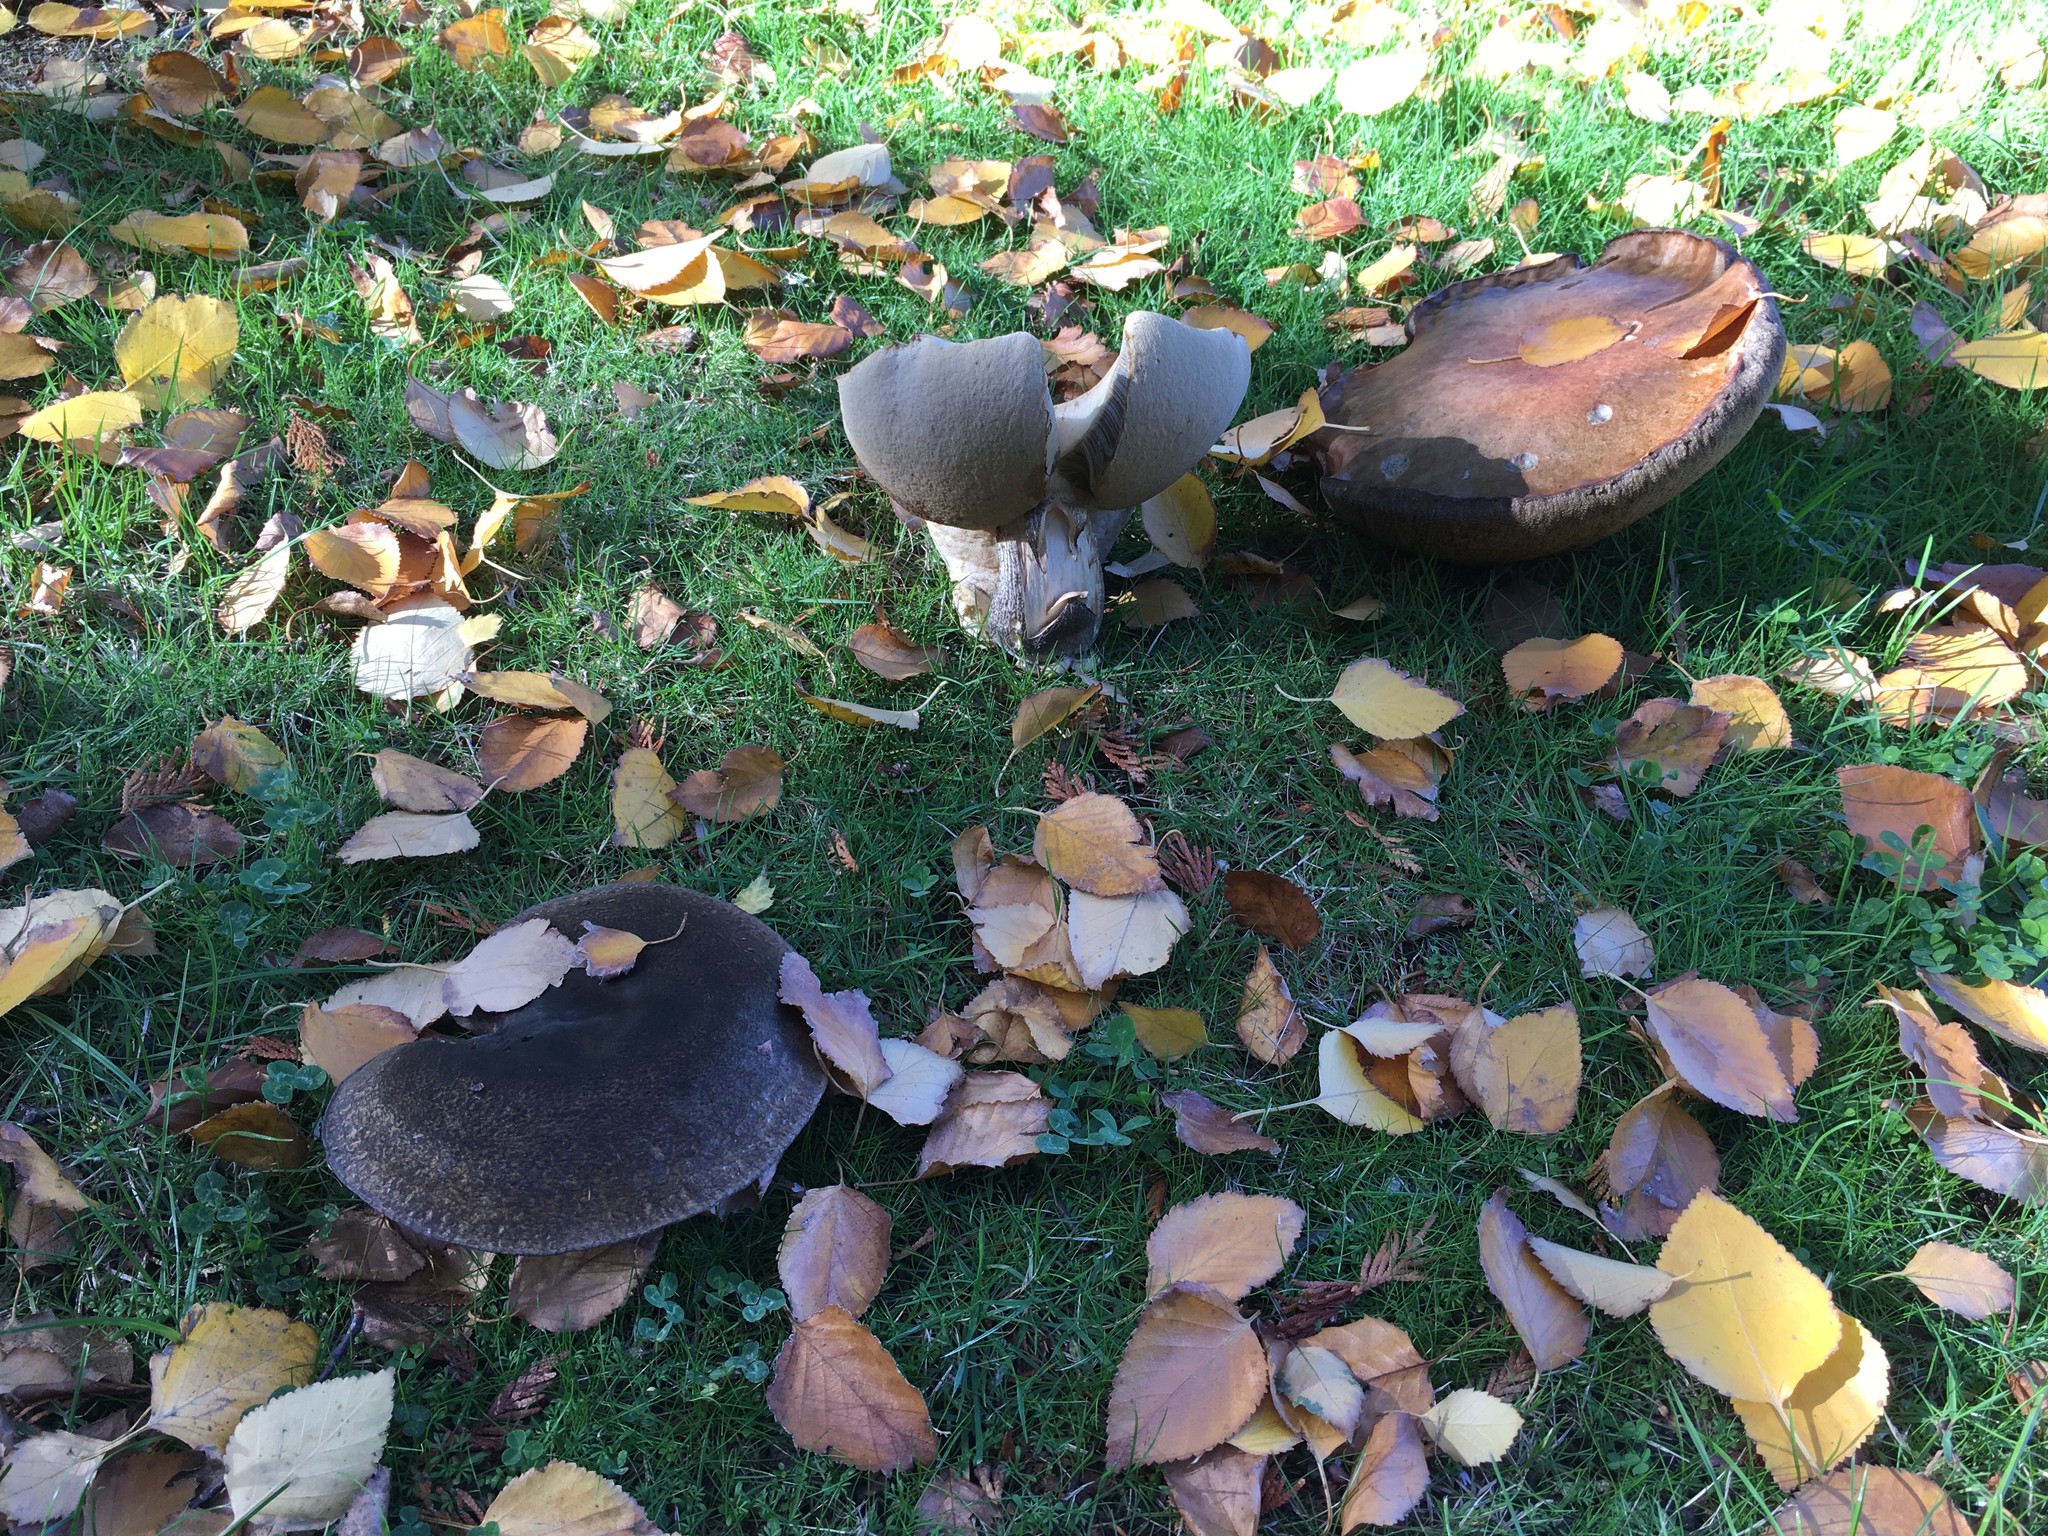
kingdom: Fungi
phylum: Basidiomycota
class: Agaricomycetes
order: Boletales
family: Boletaceae
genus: Leccinum
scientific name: Leccinum scabrum
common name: Blushing bolete
